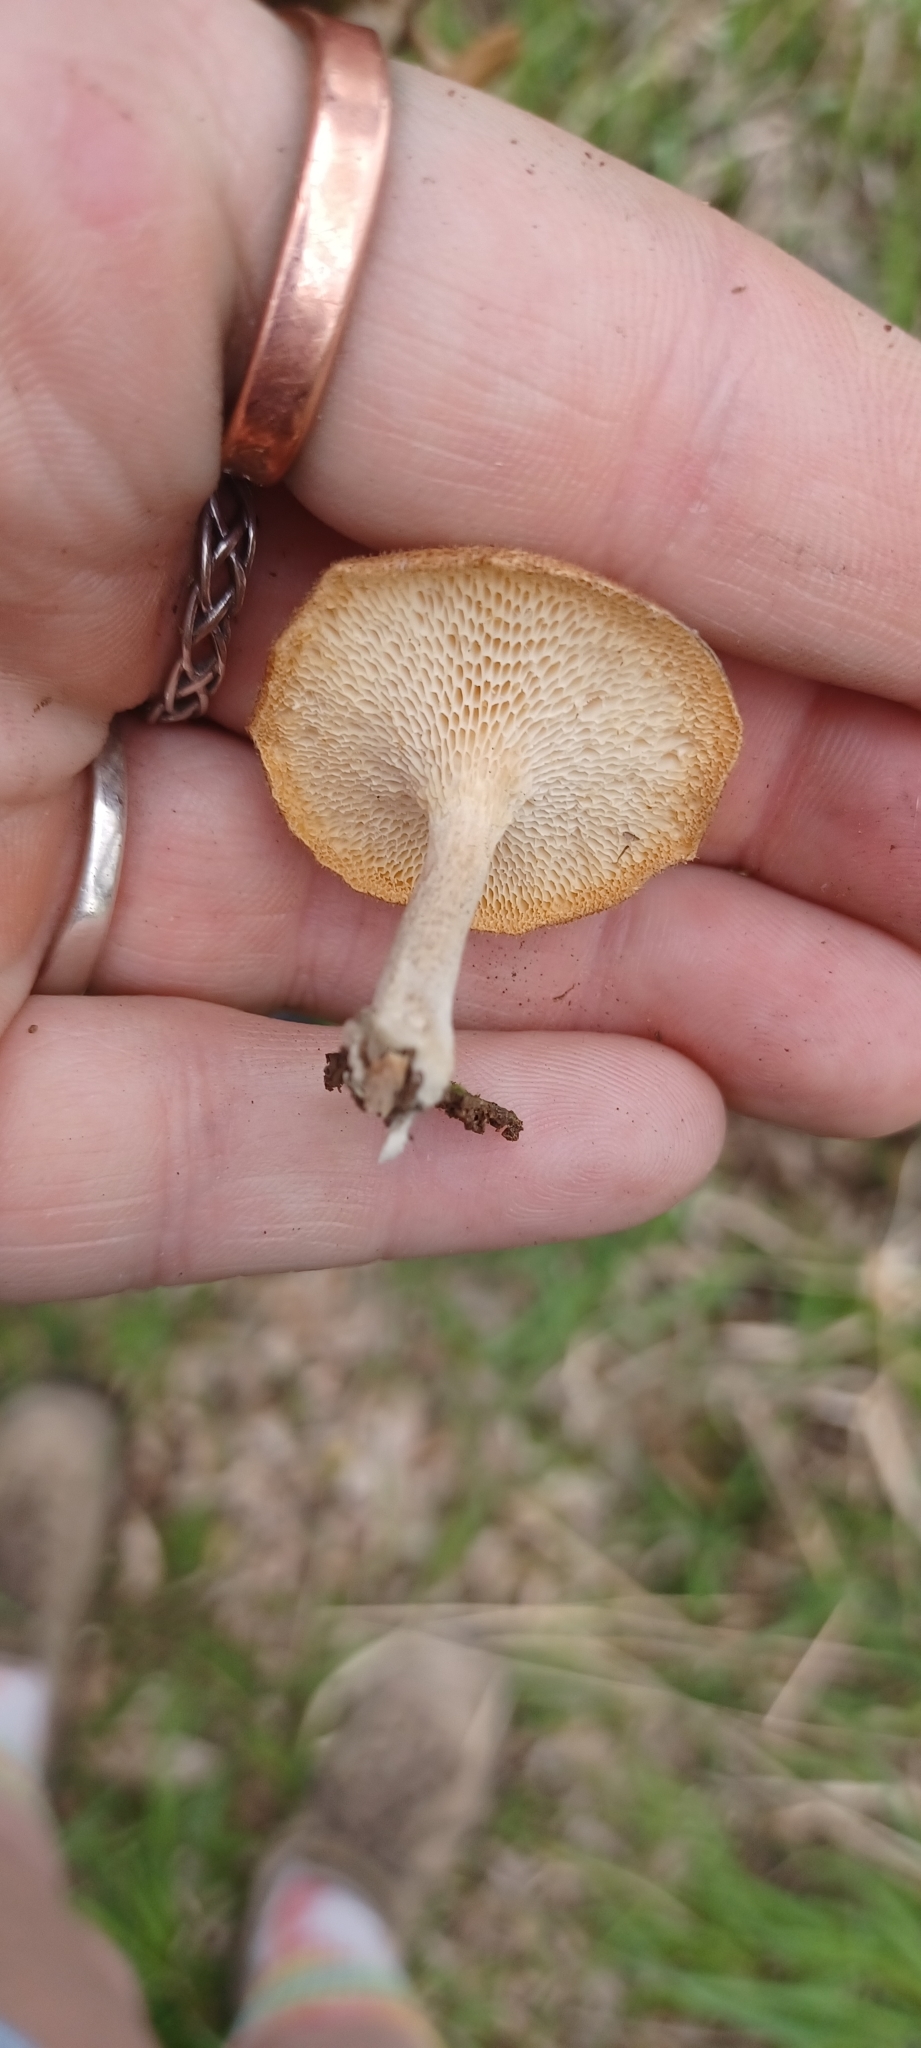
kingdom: Fungi
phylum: Basidiomycota
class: Agaricomycetes
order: Polyporales
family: Polyporaceae
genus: Lentinus
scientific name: Lentinus arcularius
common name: Spring polypore
